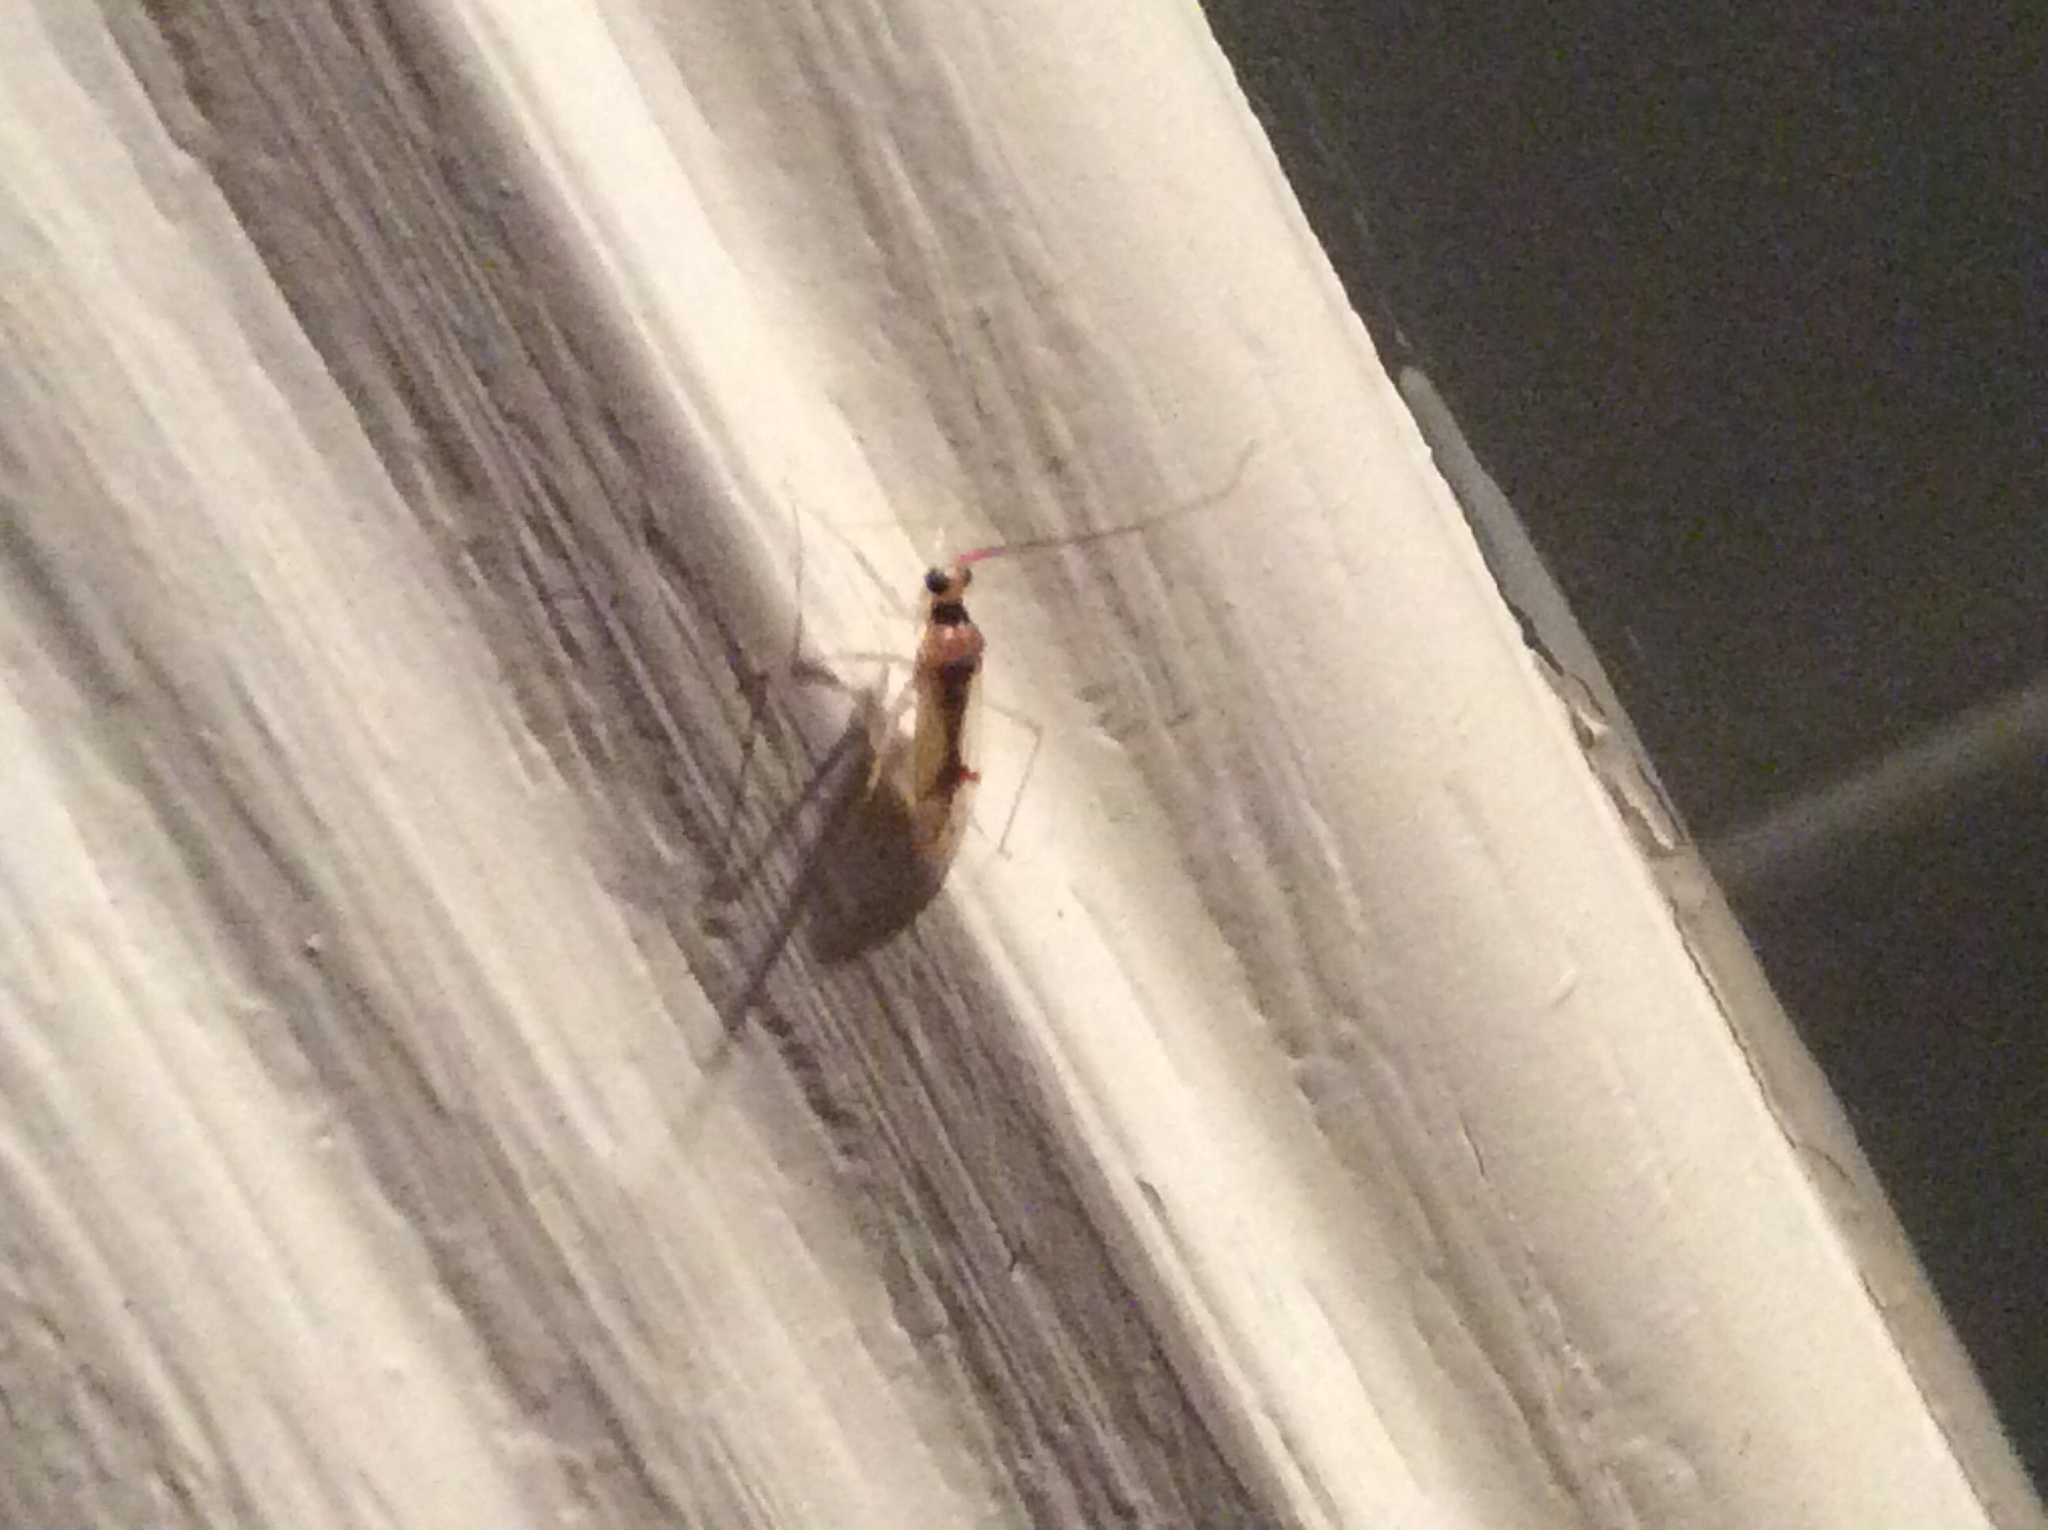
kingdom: Animalia
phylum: Arthropoda
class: Insecta
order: Hemiptera
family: Miridae
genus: Hyaliodes
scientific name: Hyaliodes harti
